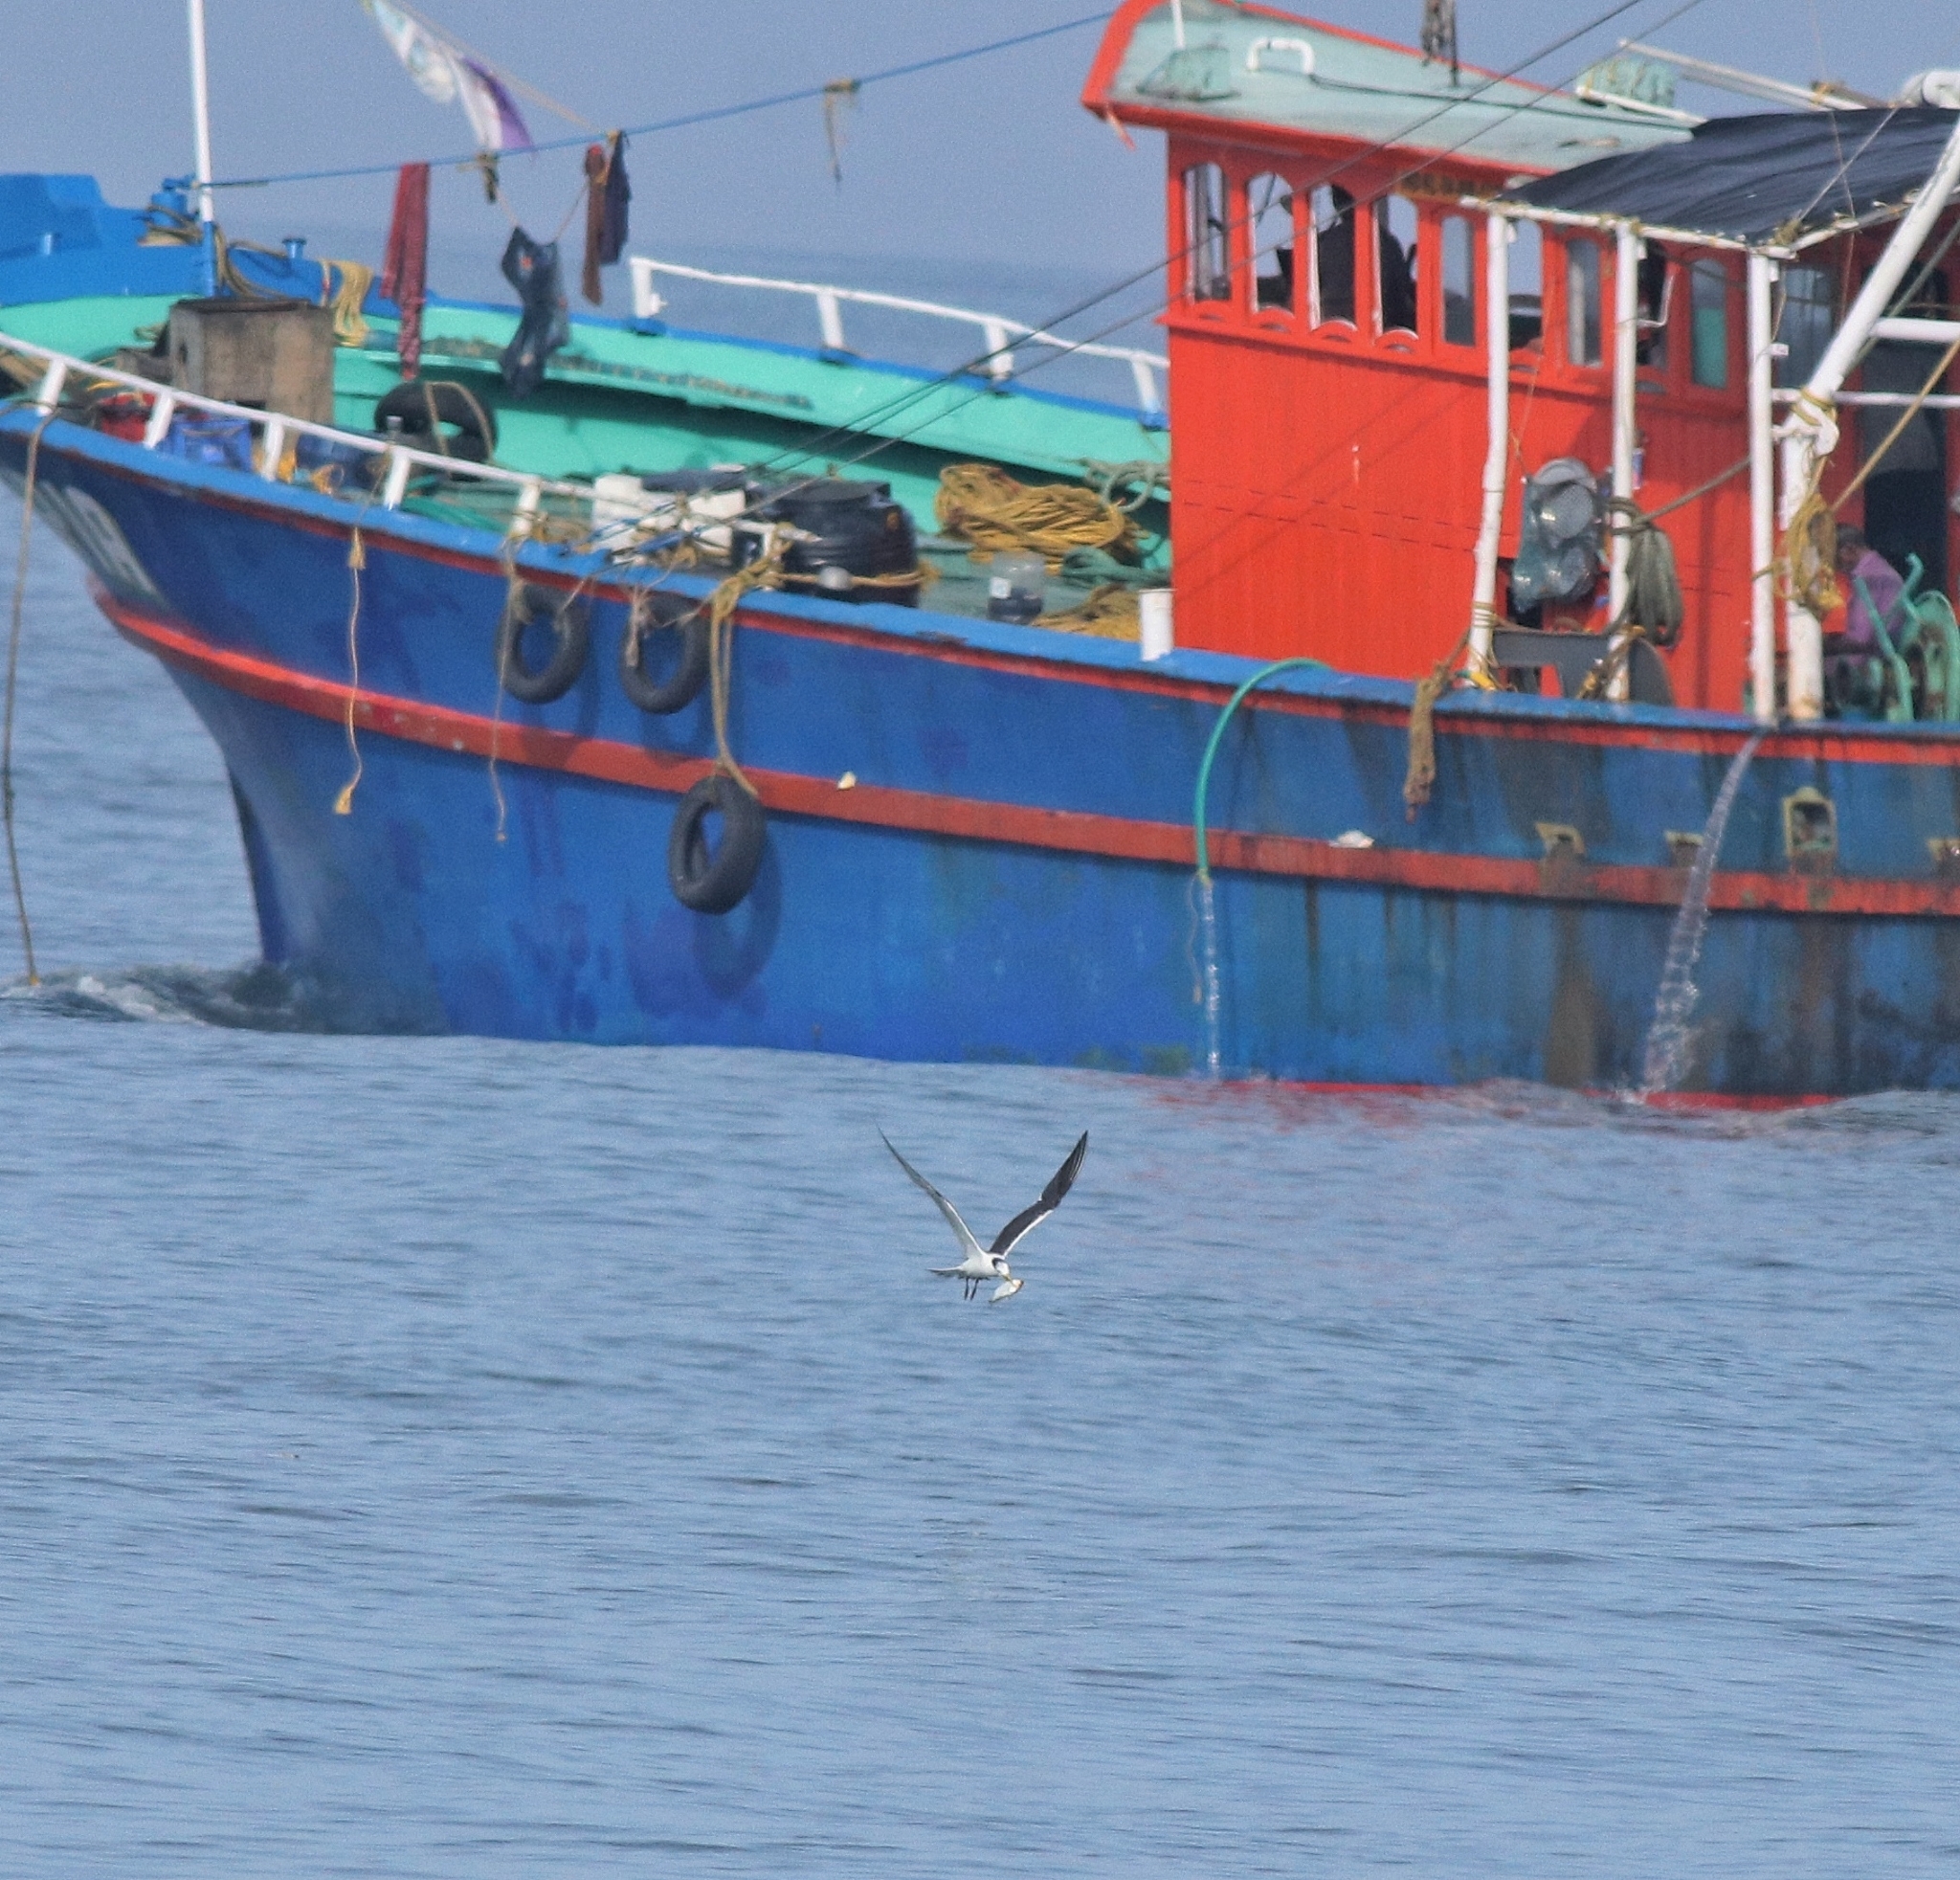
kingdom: Animalia
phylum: Chordata
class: Aves
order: Charadriiformes
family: Laridae
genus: Thalasseus
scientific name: Thalasseus bergii
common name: Greater crested tern
